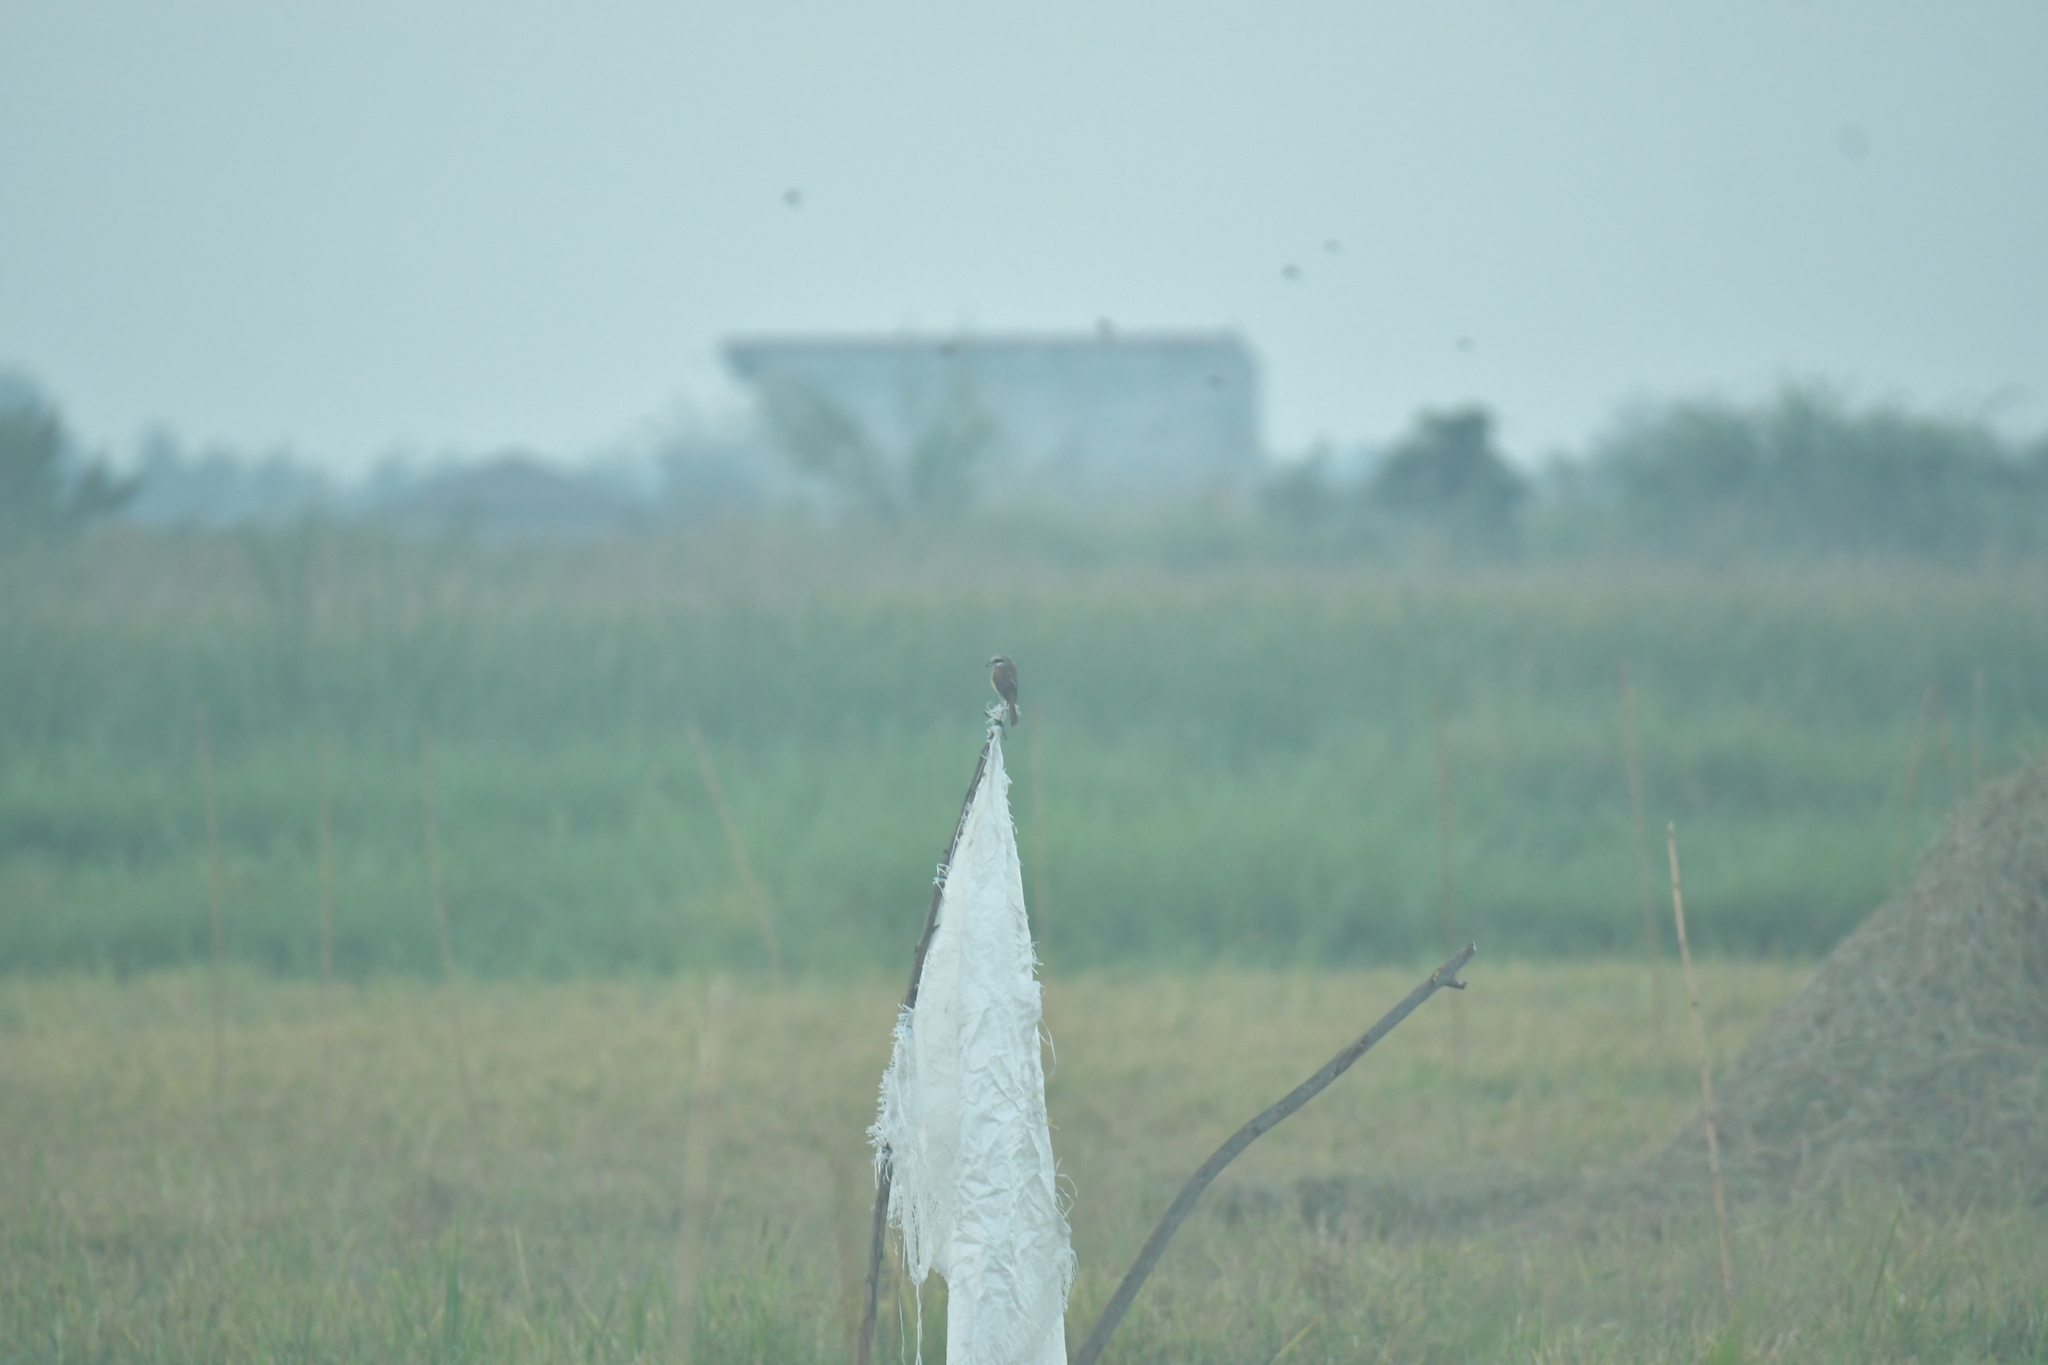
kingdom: Animalia
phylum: Chordata
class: Aves
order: Passeriformes
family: Laniidae
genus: Lanius
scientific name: Lanius cristatus
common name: Brown shrike
